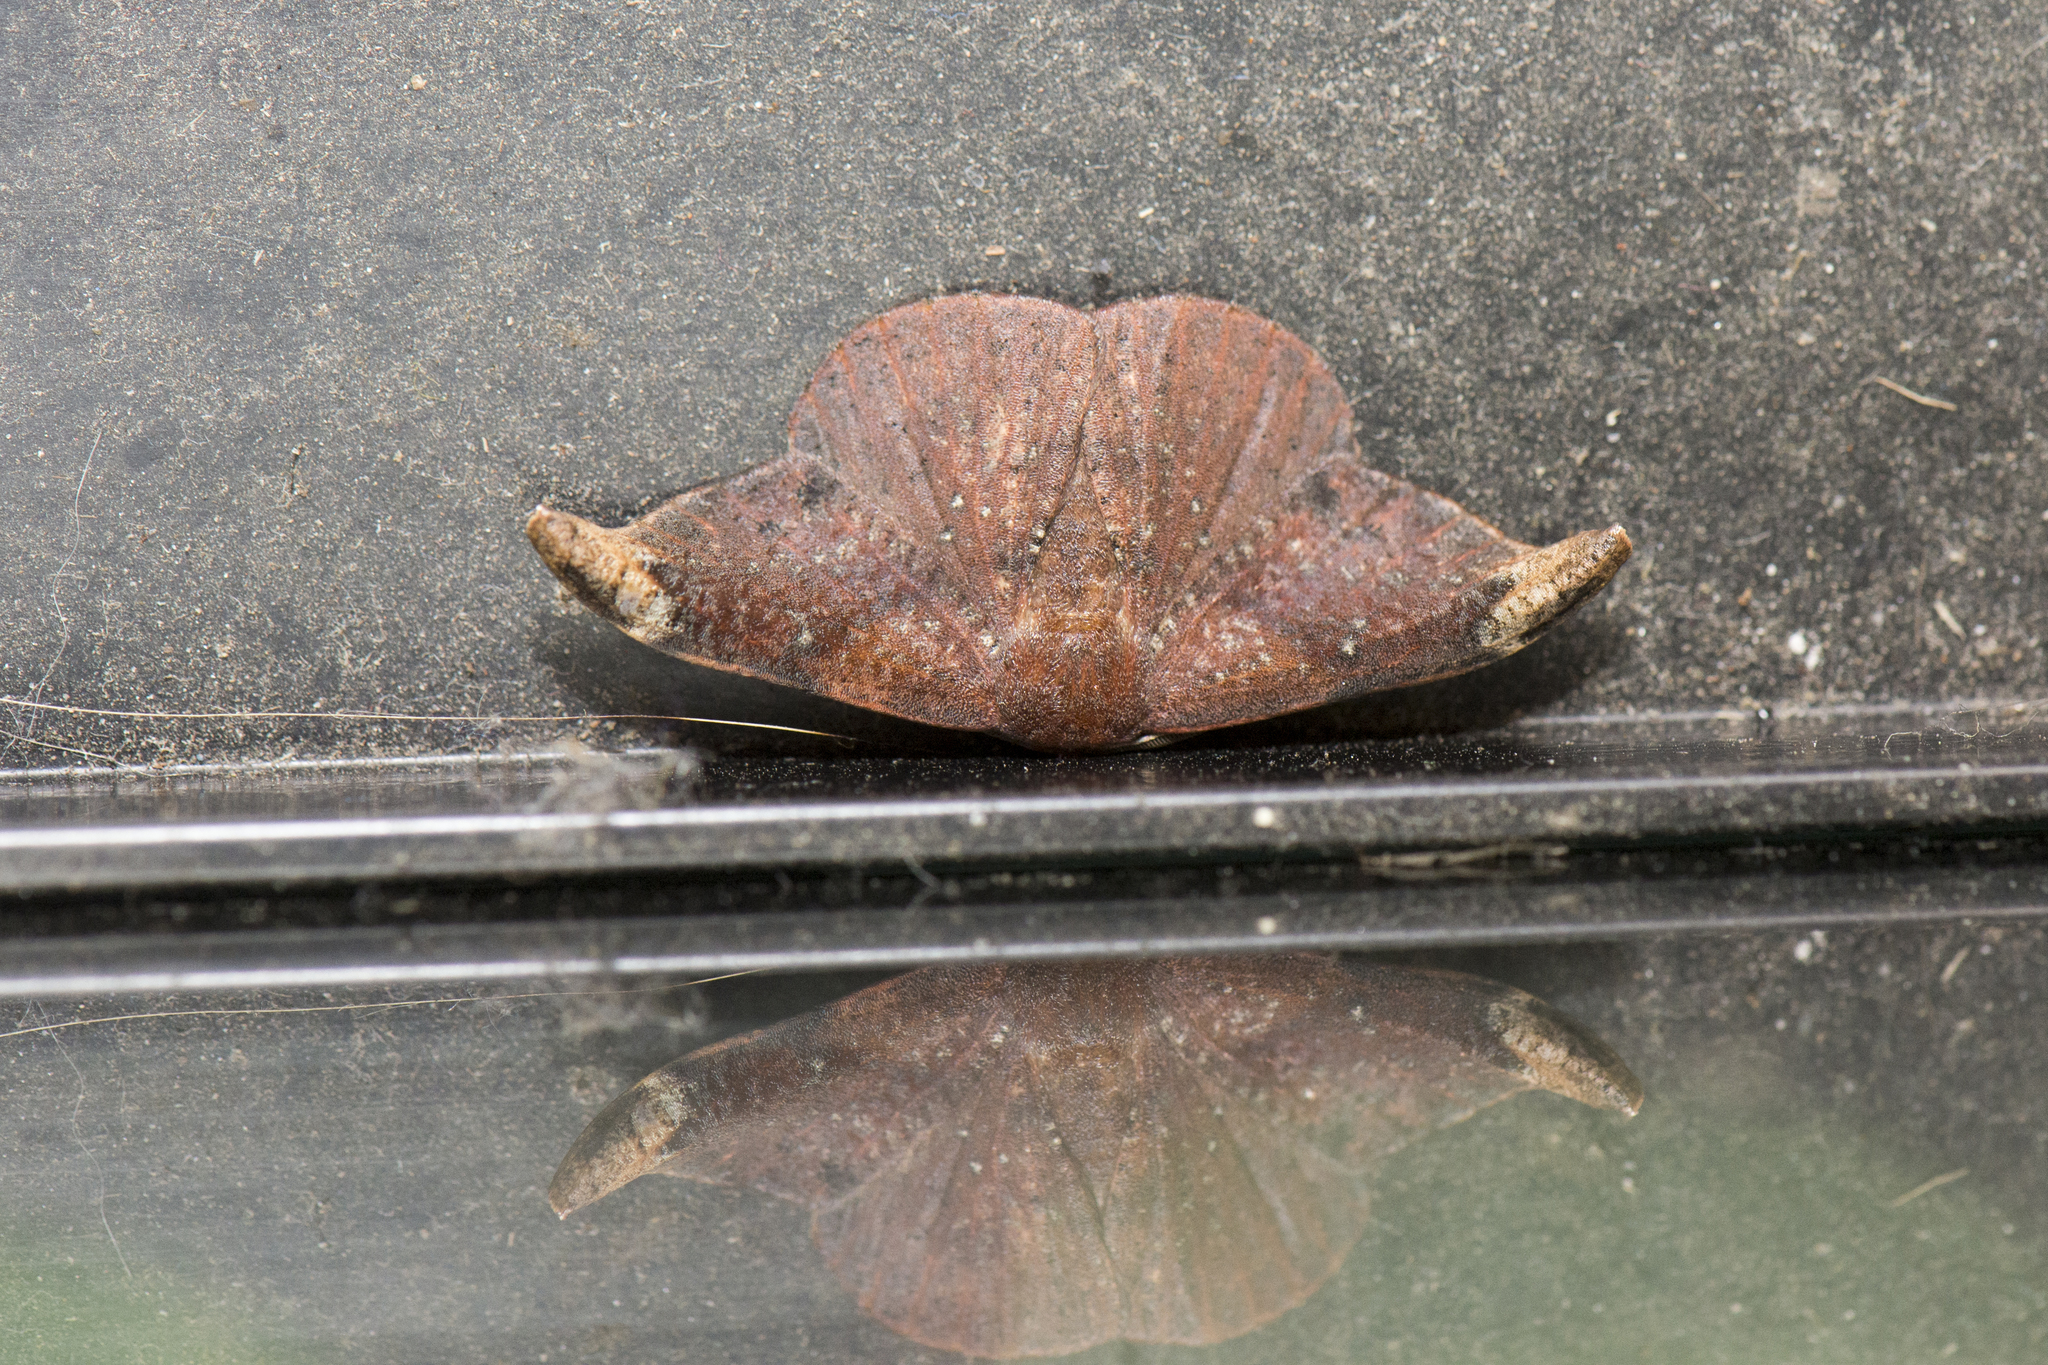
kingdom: Animalia
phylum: Arthropoda
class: Insecta
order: Lepidoptera
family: Drepanidae
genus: Oreta
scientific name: Oreta griseotincta
